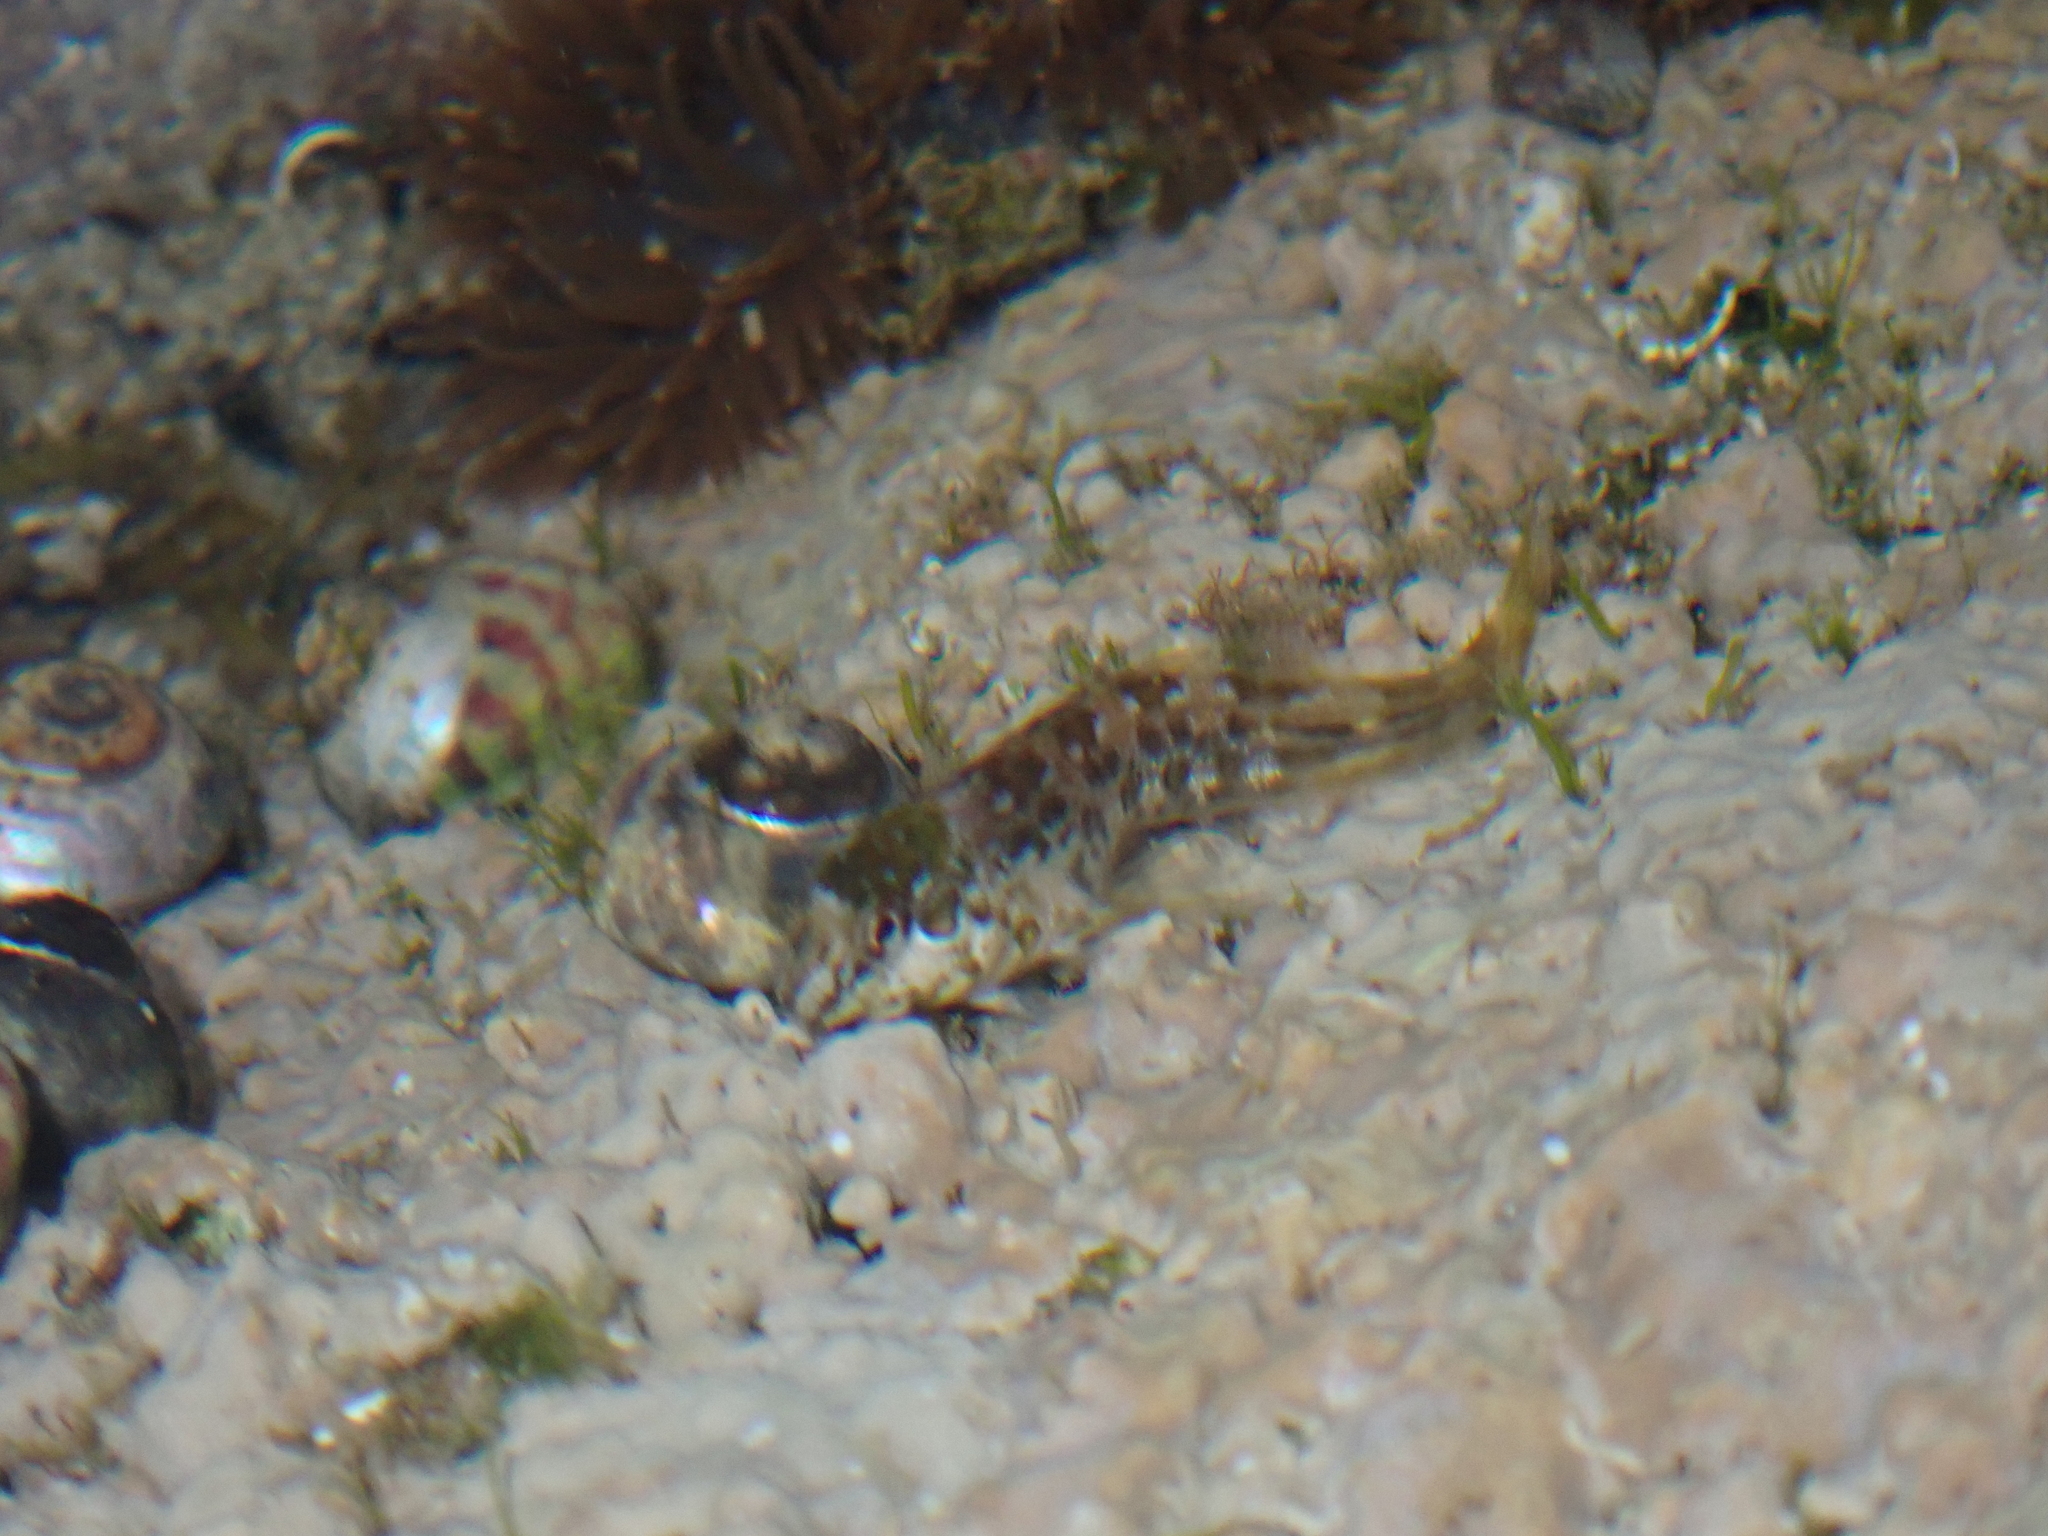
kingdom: Animalia
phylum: Chordata
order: Perciformes
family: Blenniidae
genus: Lipophrys
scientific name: Lipophrys pholis
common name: Shanny
